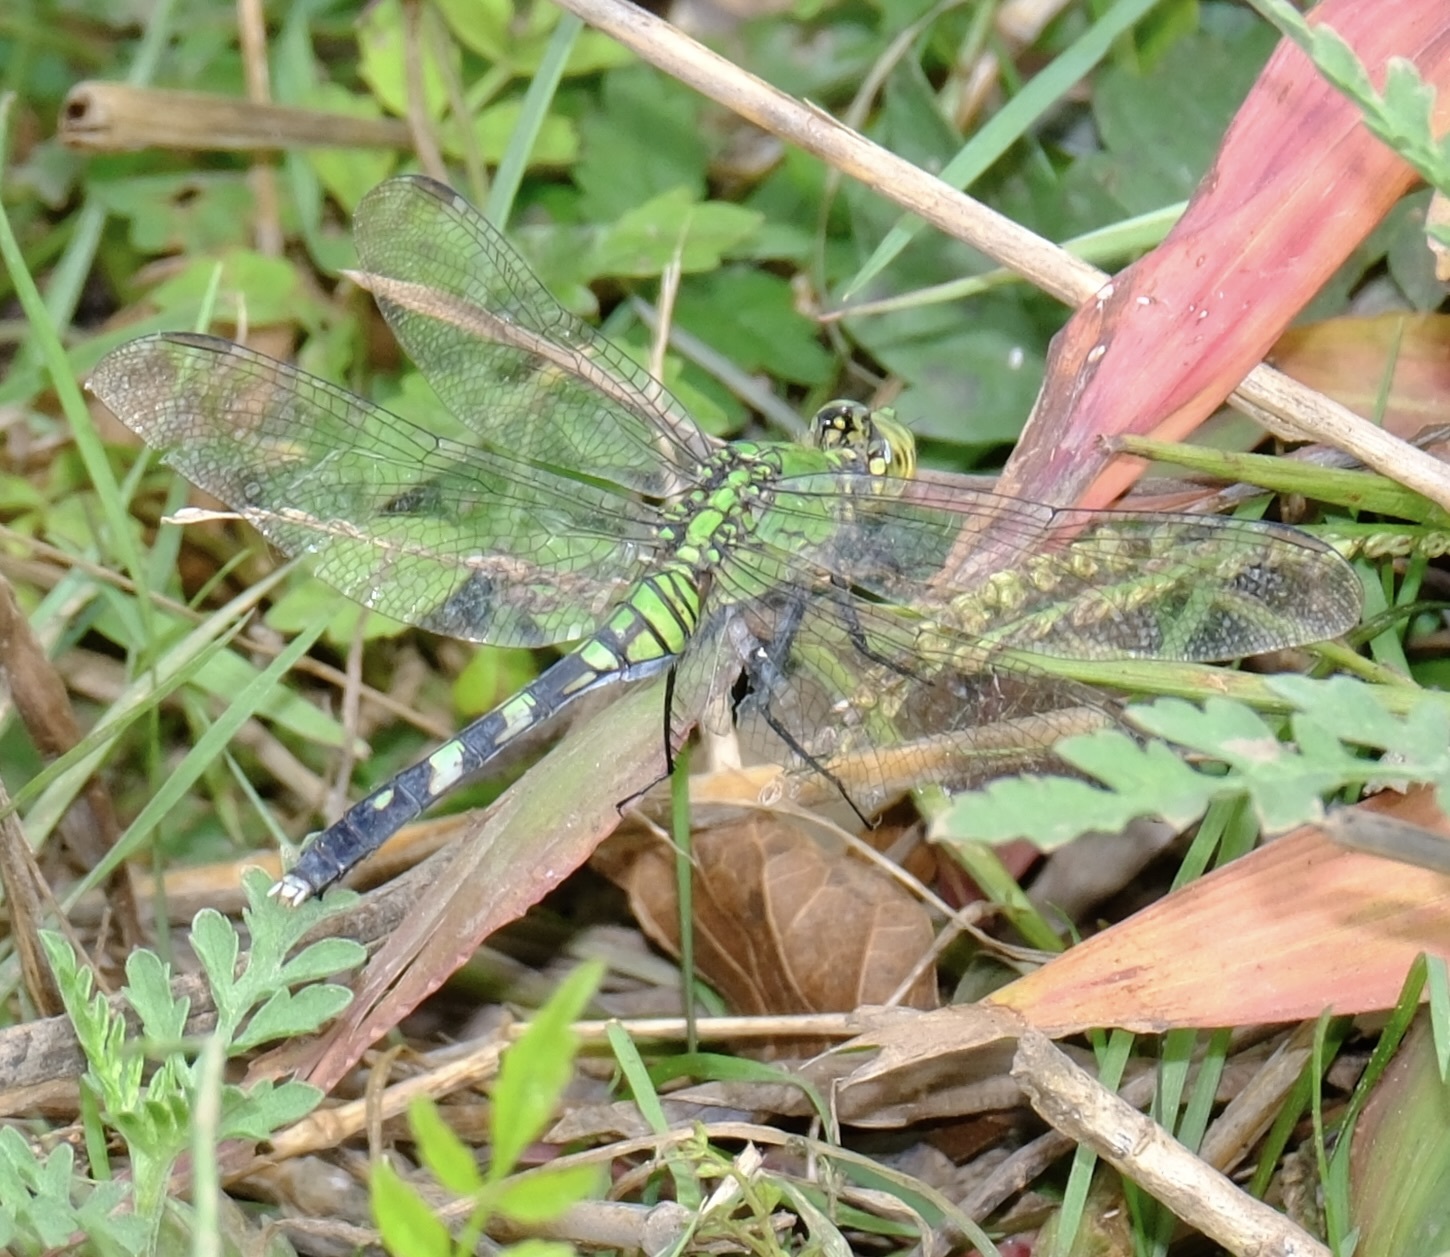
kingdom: Animalia
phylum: Arthropoda
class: Insecta
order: Odonata
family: Libellulidae
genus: Erythemis
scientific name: Erythemis simplicicollis
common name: Eastern pondhawk
